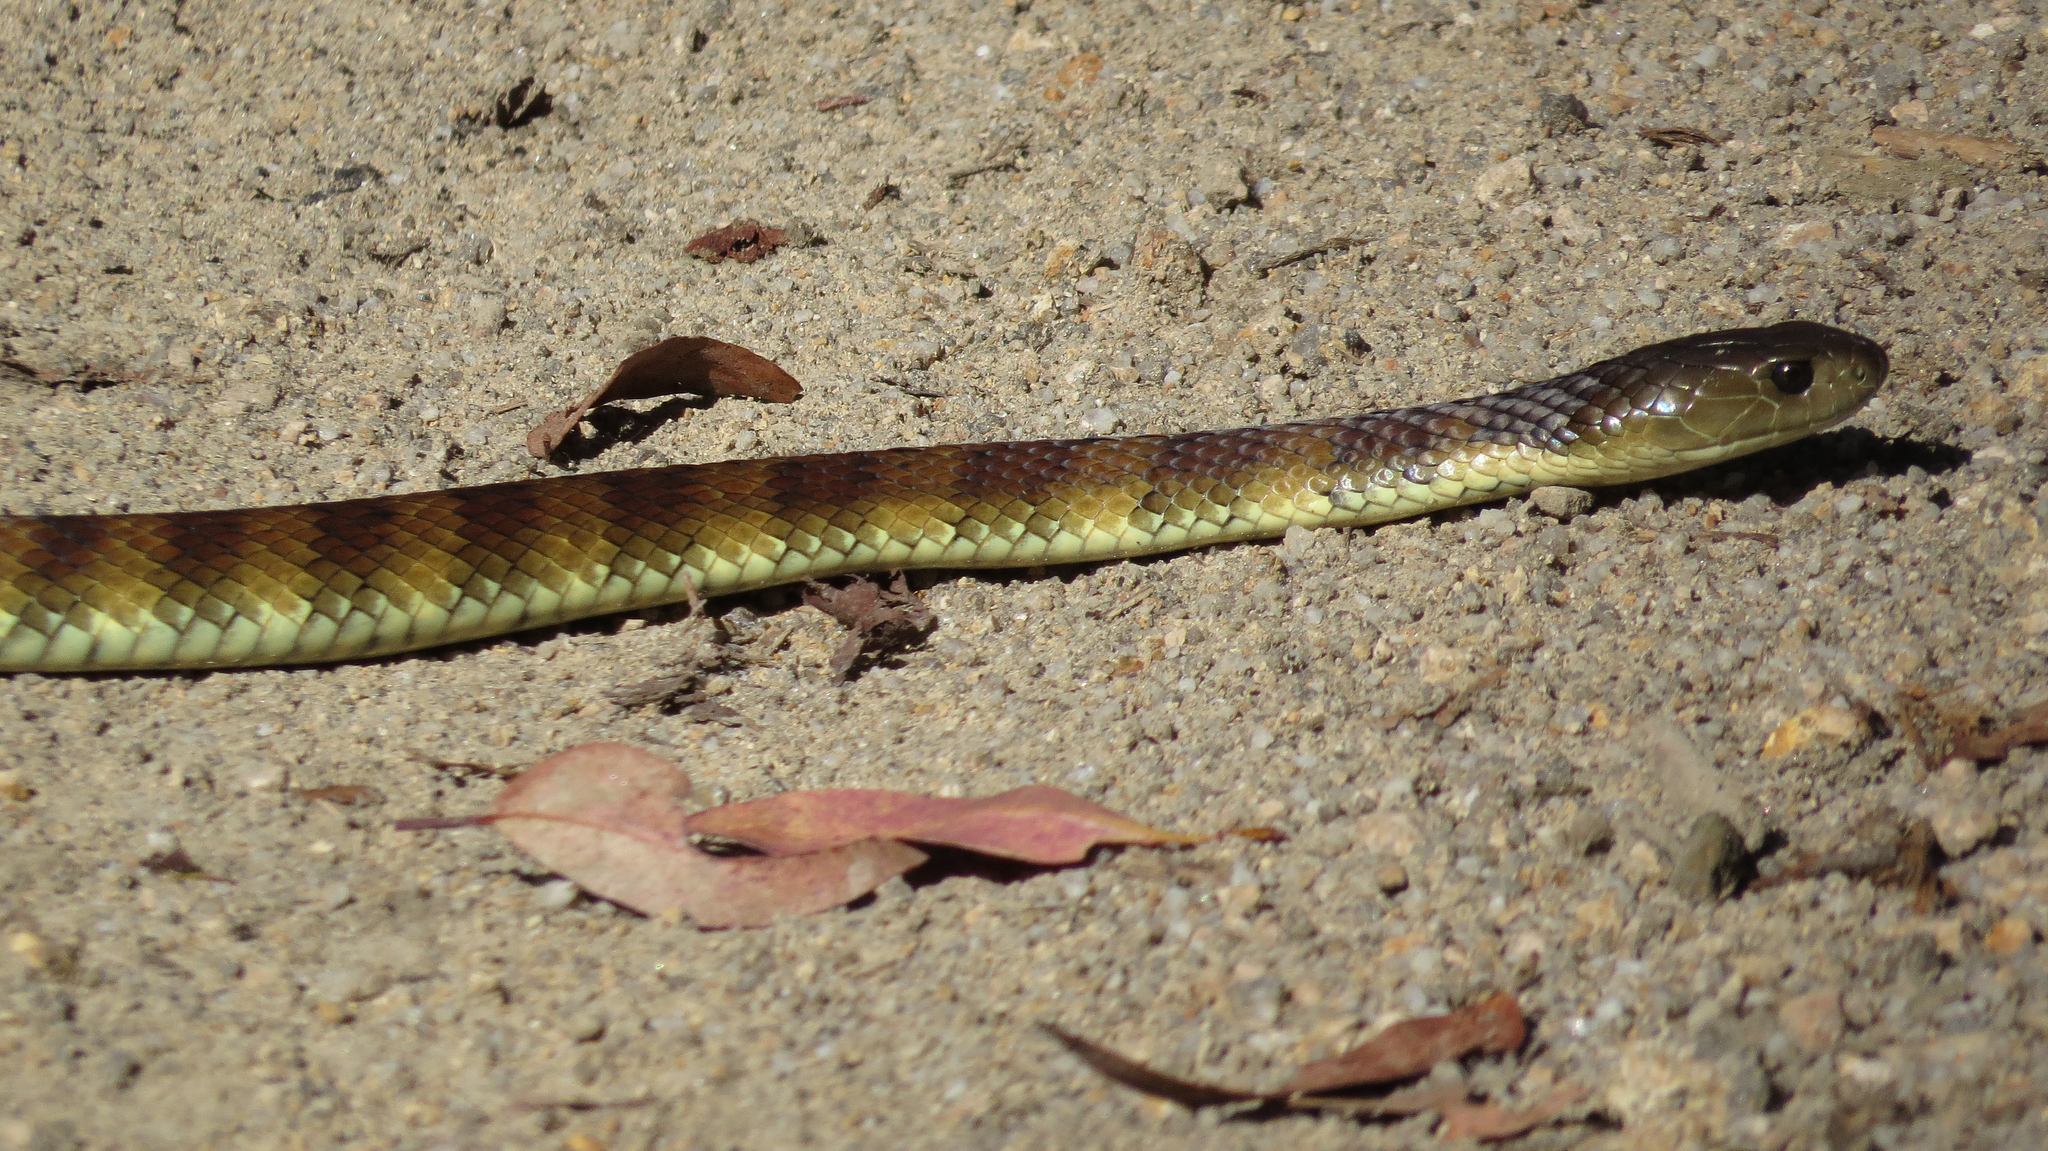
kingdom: Animalia
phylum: Chordata
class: Squamata
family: Elapidae
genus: Notechis
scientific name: Notechis scutatus
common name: Mainland tiger snake
